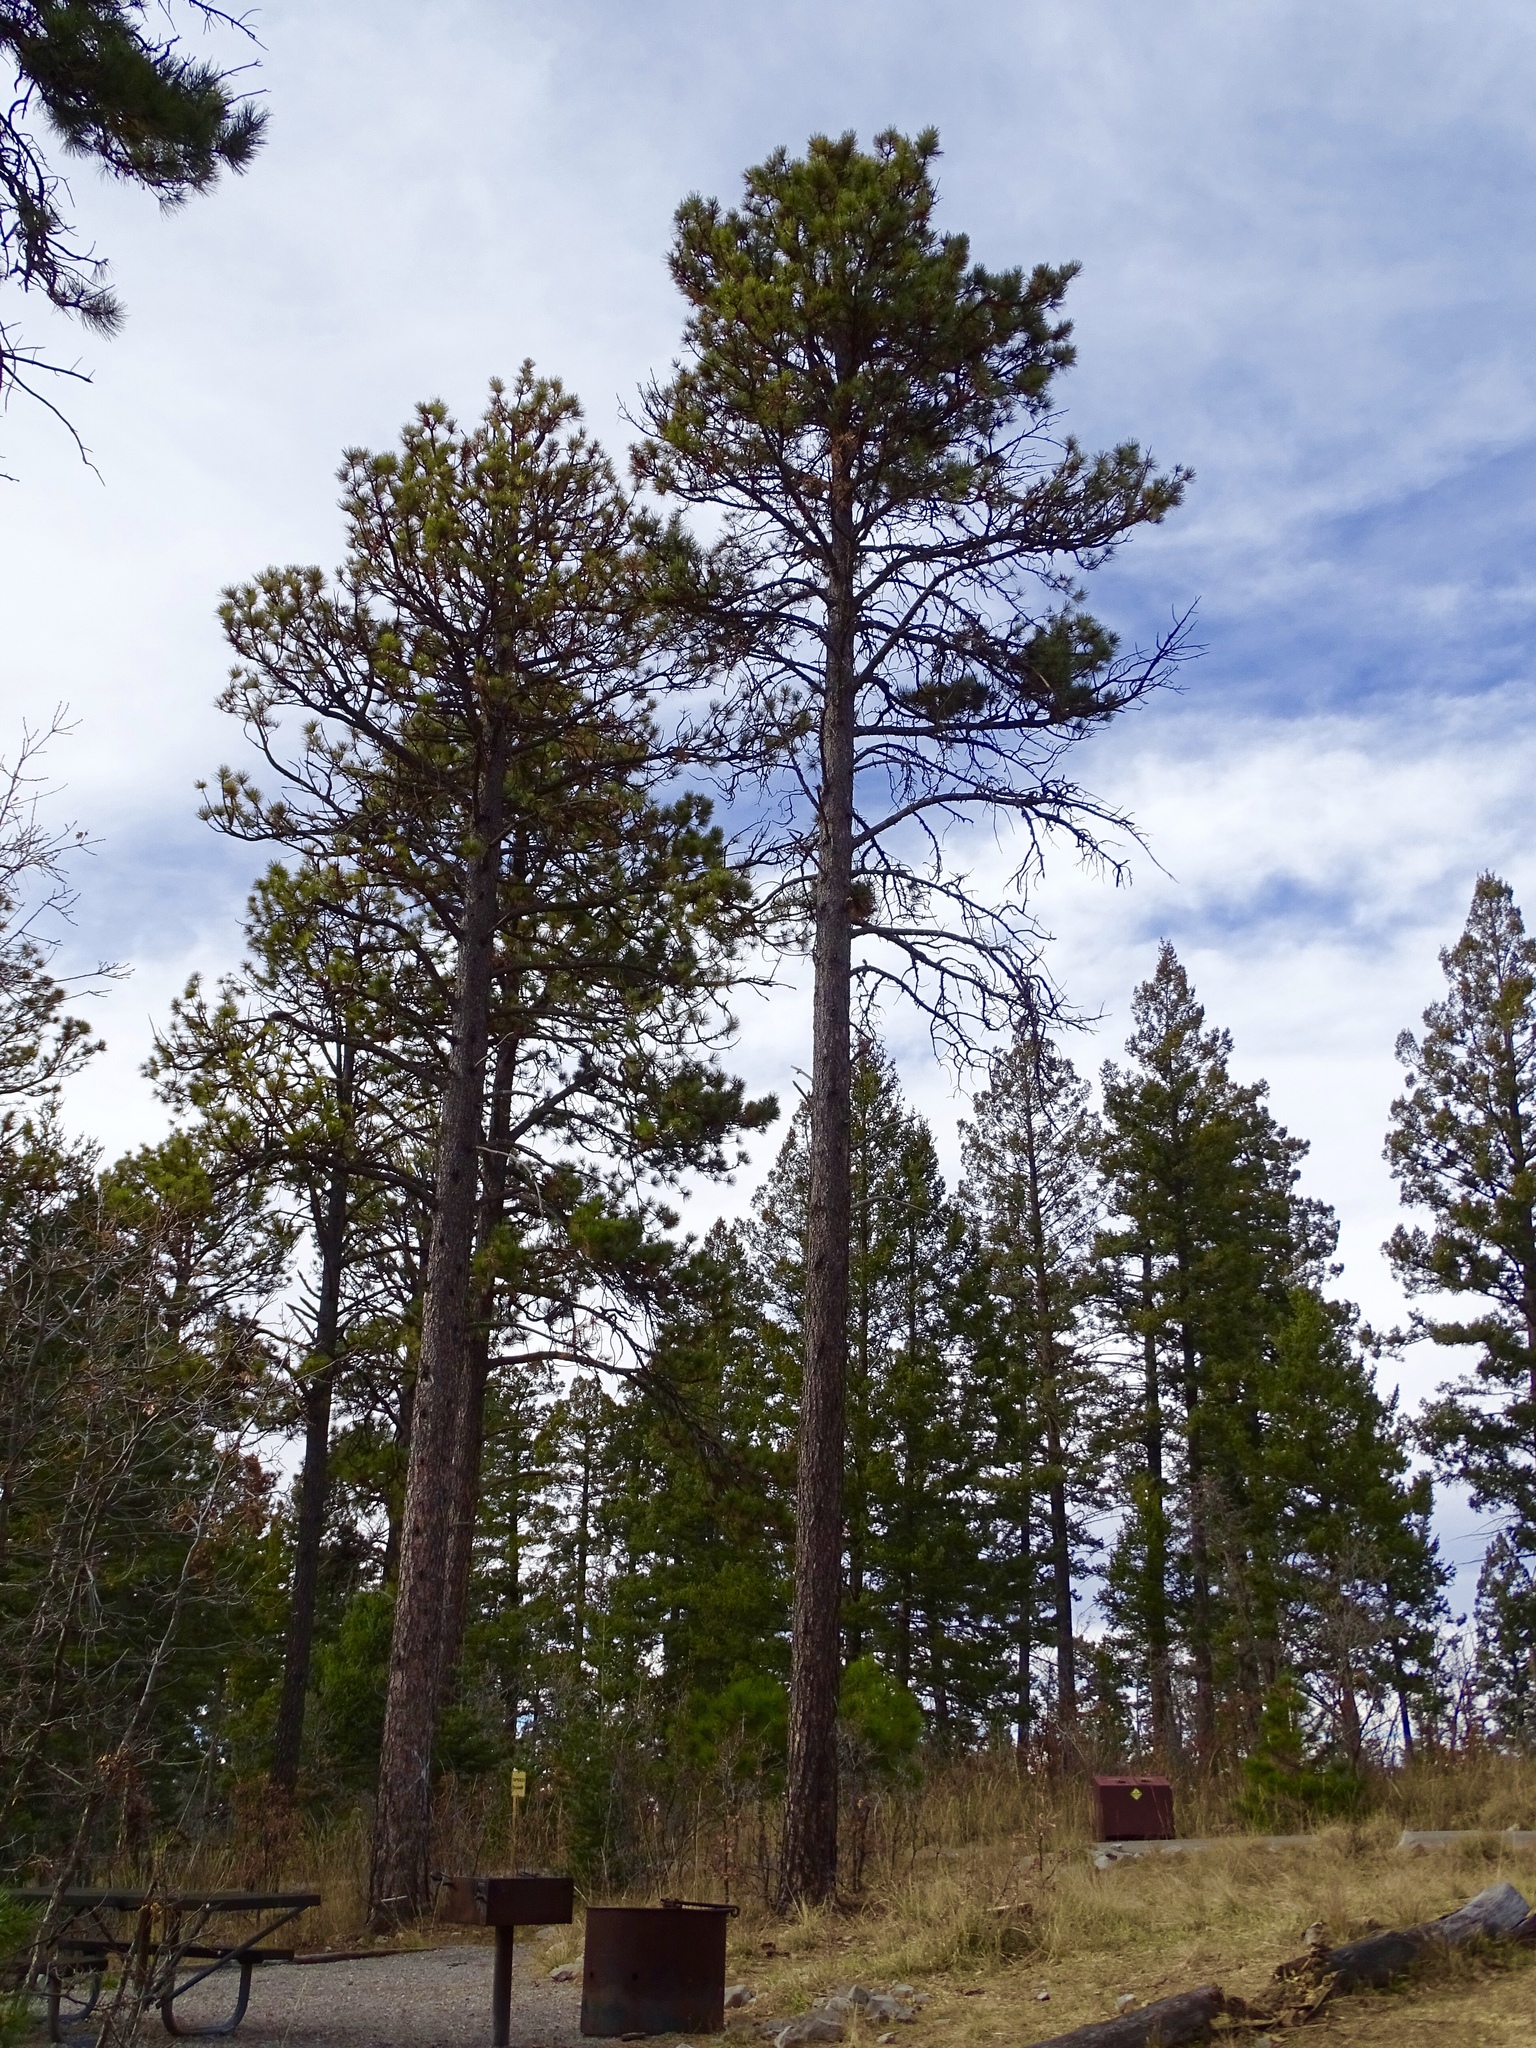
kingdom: Plantae
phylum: Tracheophyta
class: Pinopsida
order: Pinales
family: Pinaceae
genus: Pinus
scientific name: Pinus ponderosa
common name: Western yellow-pine
